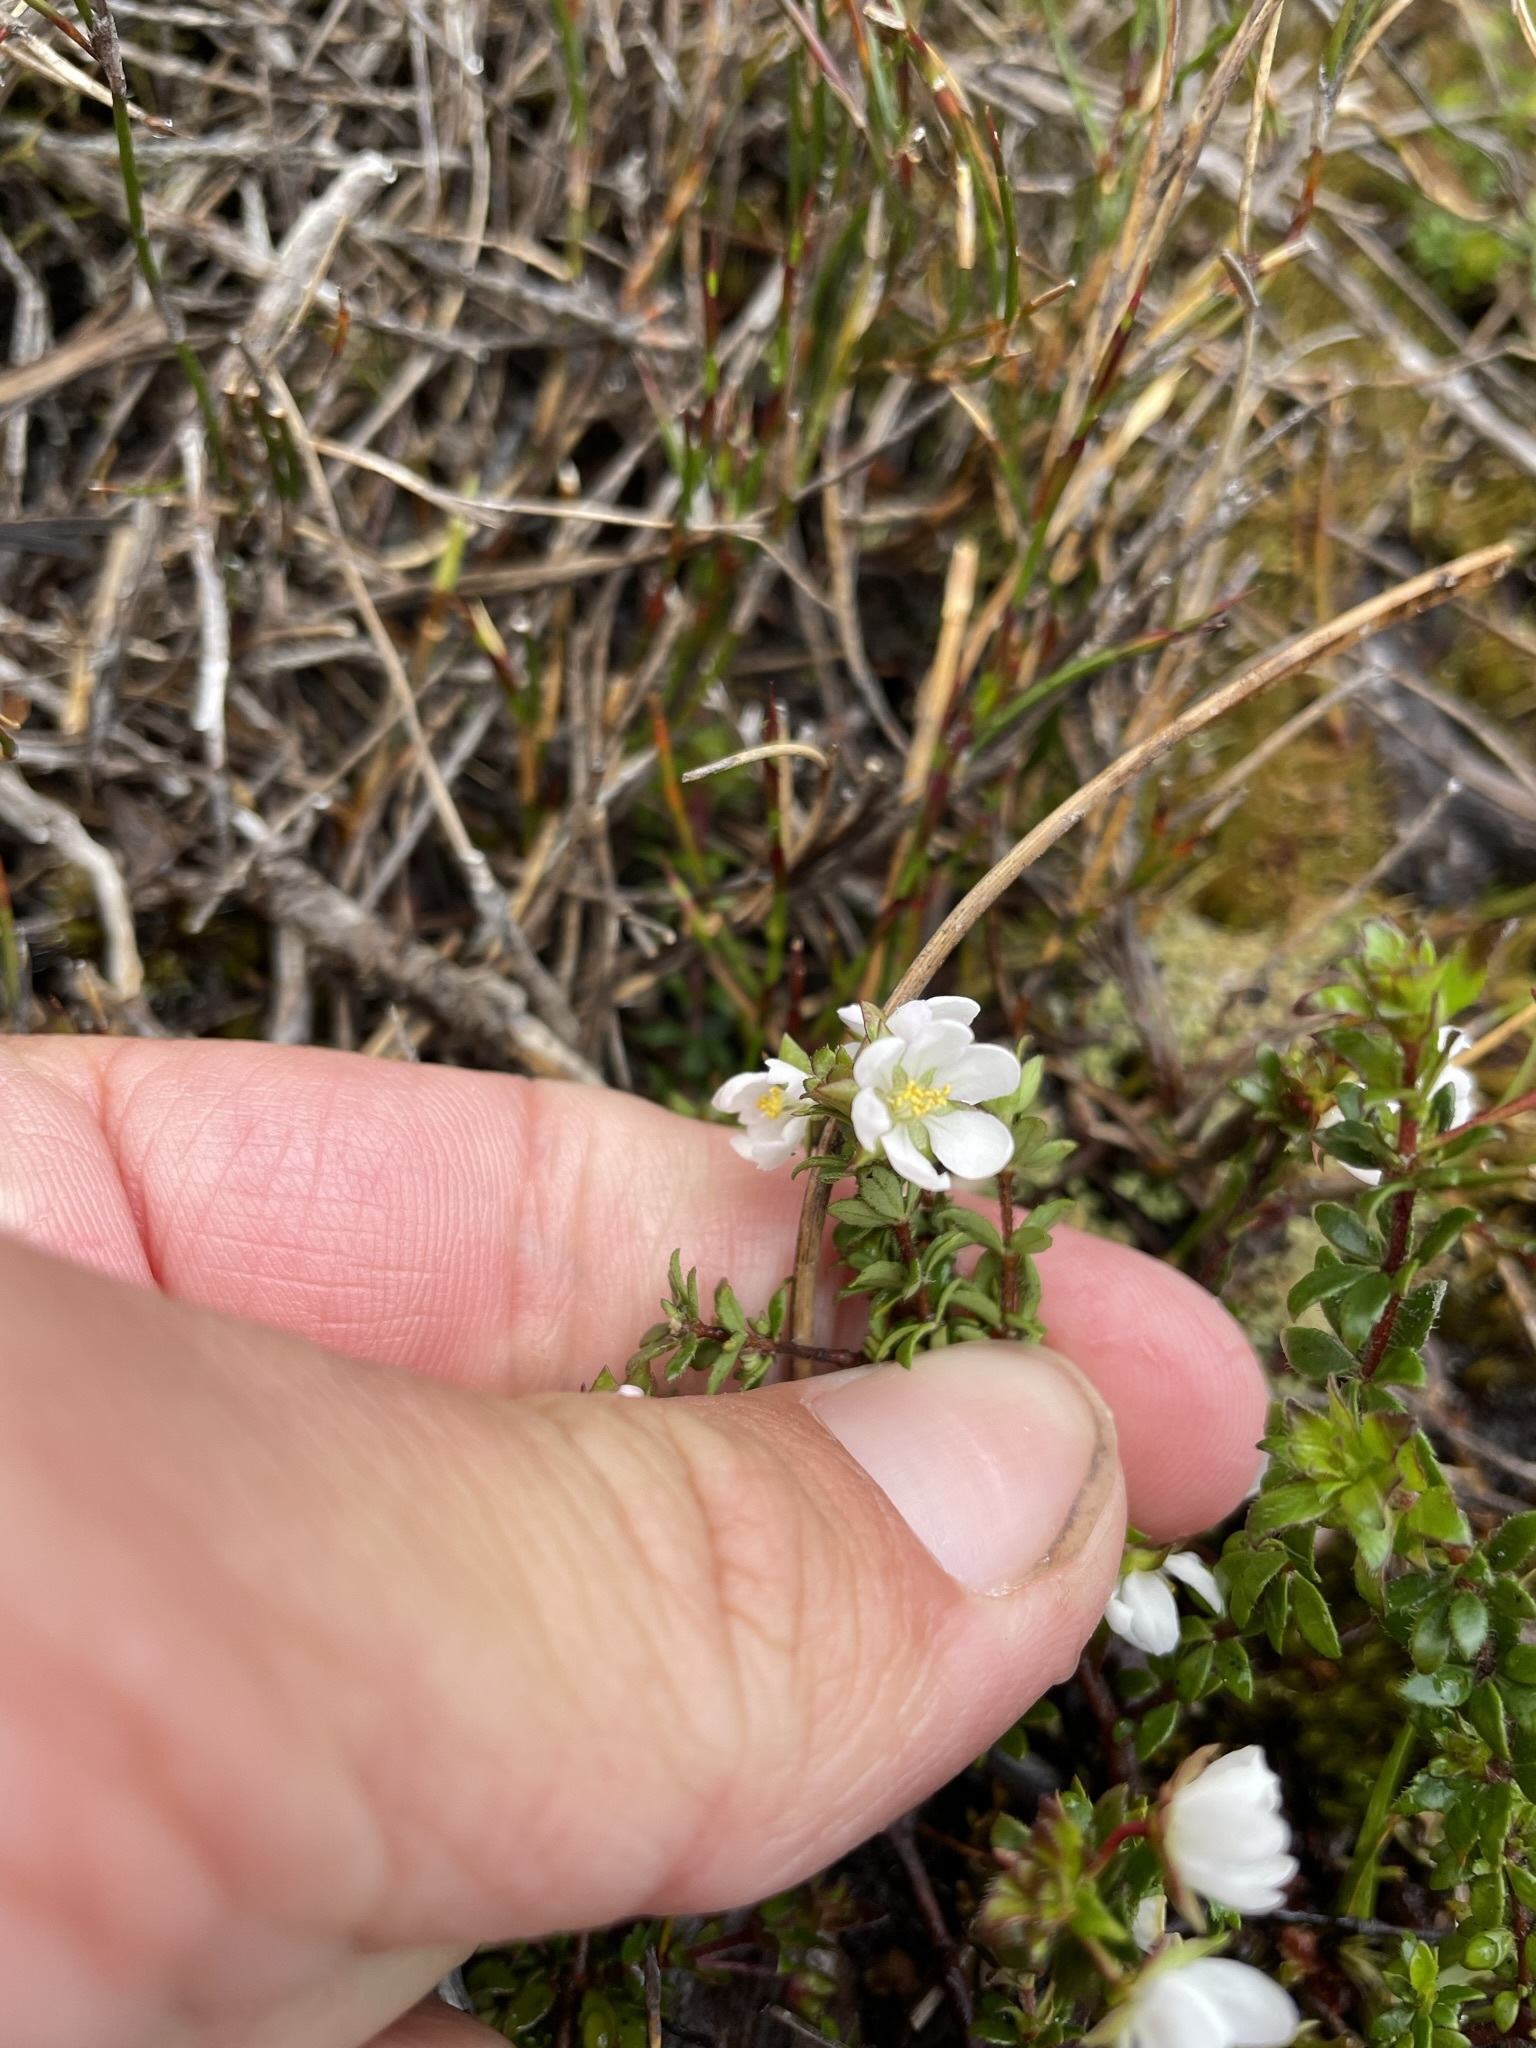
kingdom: Plantae
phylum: Tracheophyta
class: Magnoliopsida
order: Oxalidales
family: Cunoniaceae
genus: Bauera
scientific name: Bauera rubioides
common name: River-rose
